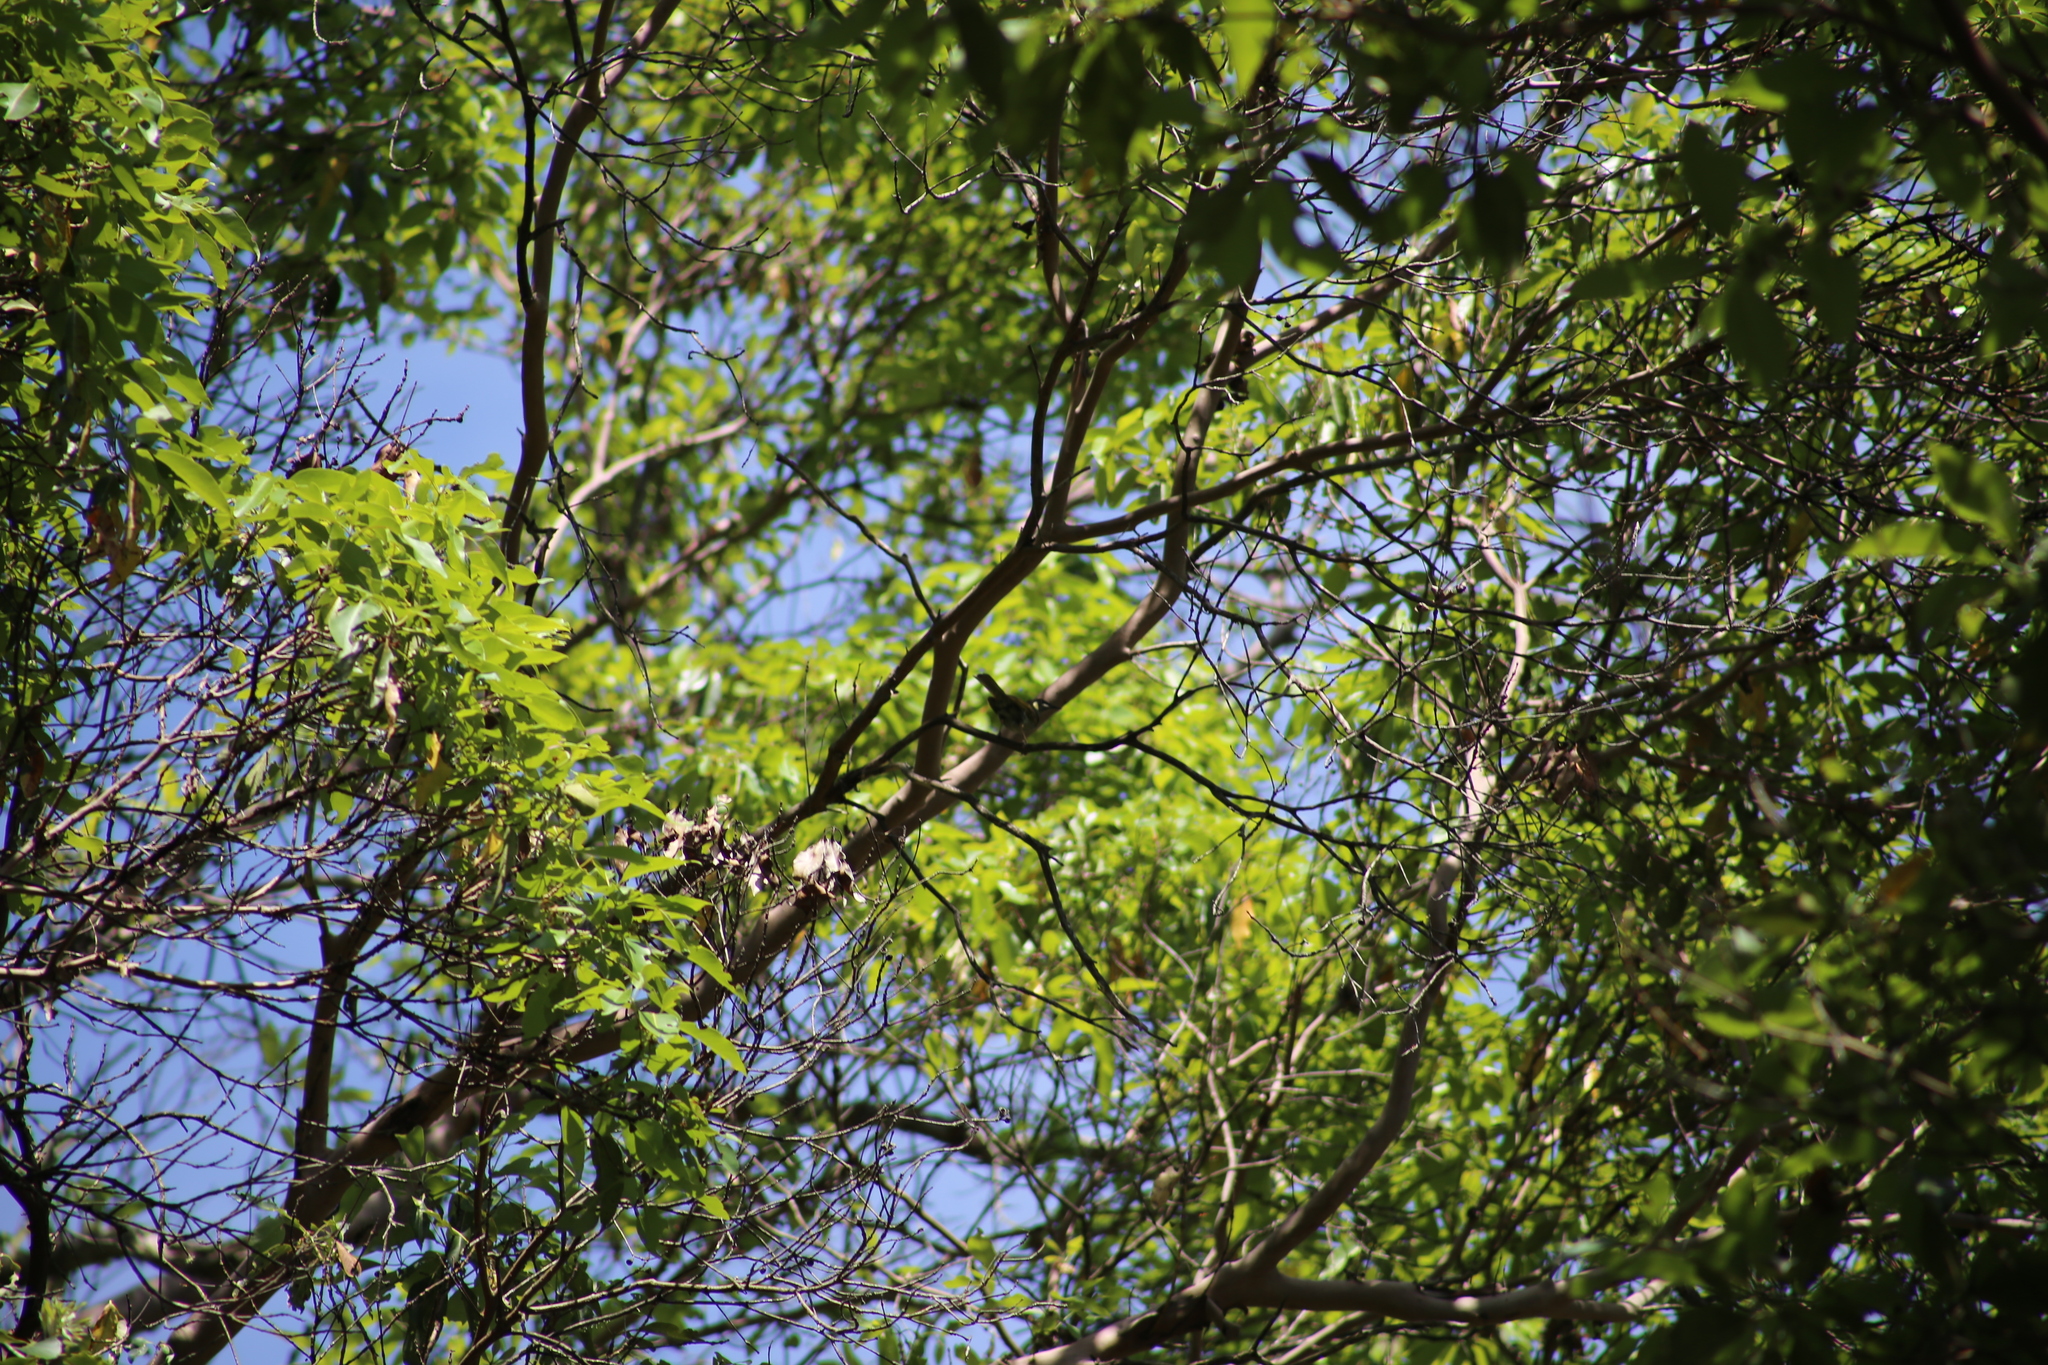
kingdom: Animalia
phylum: Chordata
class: Aves
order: Passeriformes
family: Meliphagidae
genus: Meliphaga
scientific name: Meliphaga lewinii
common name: Lewin's honeyeater
